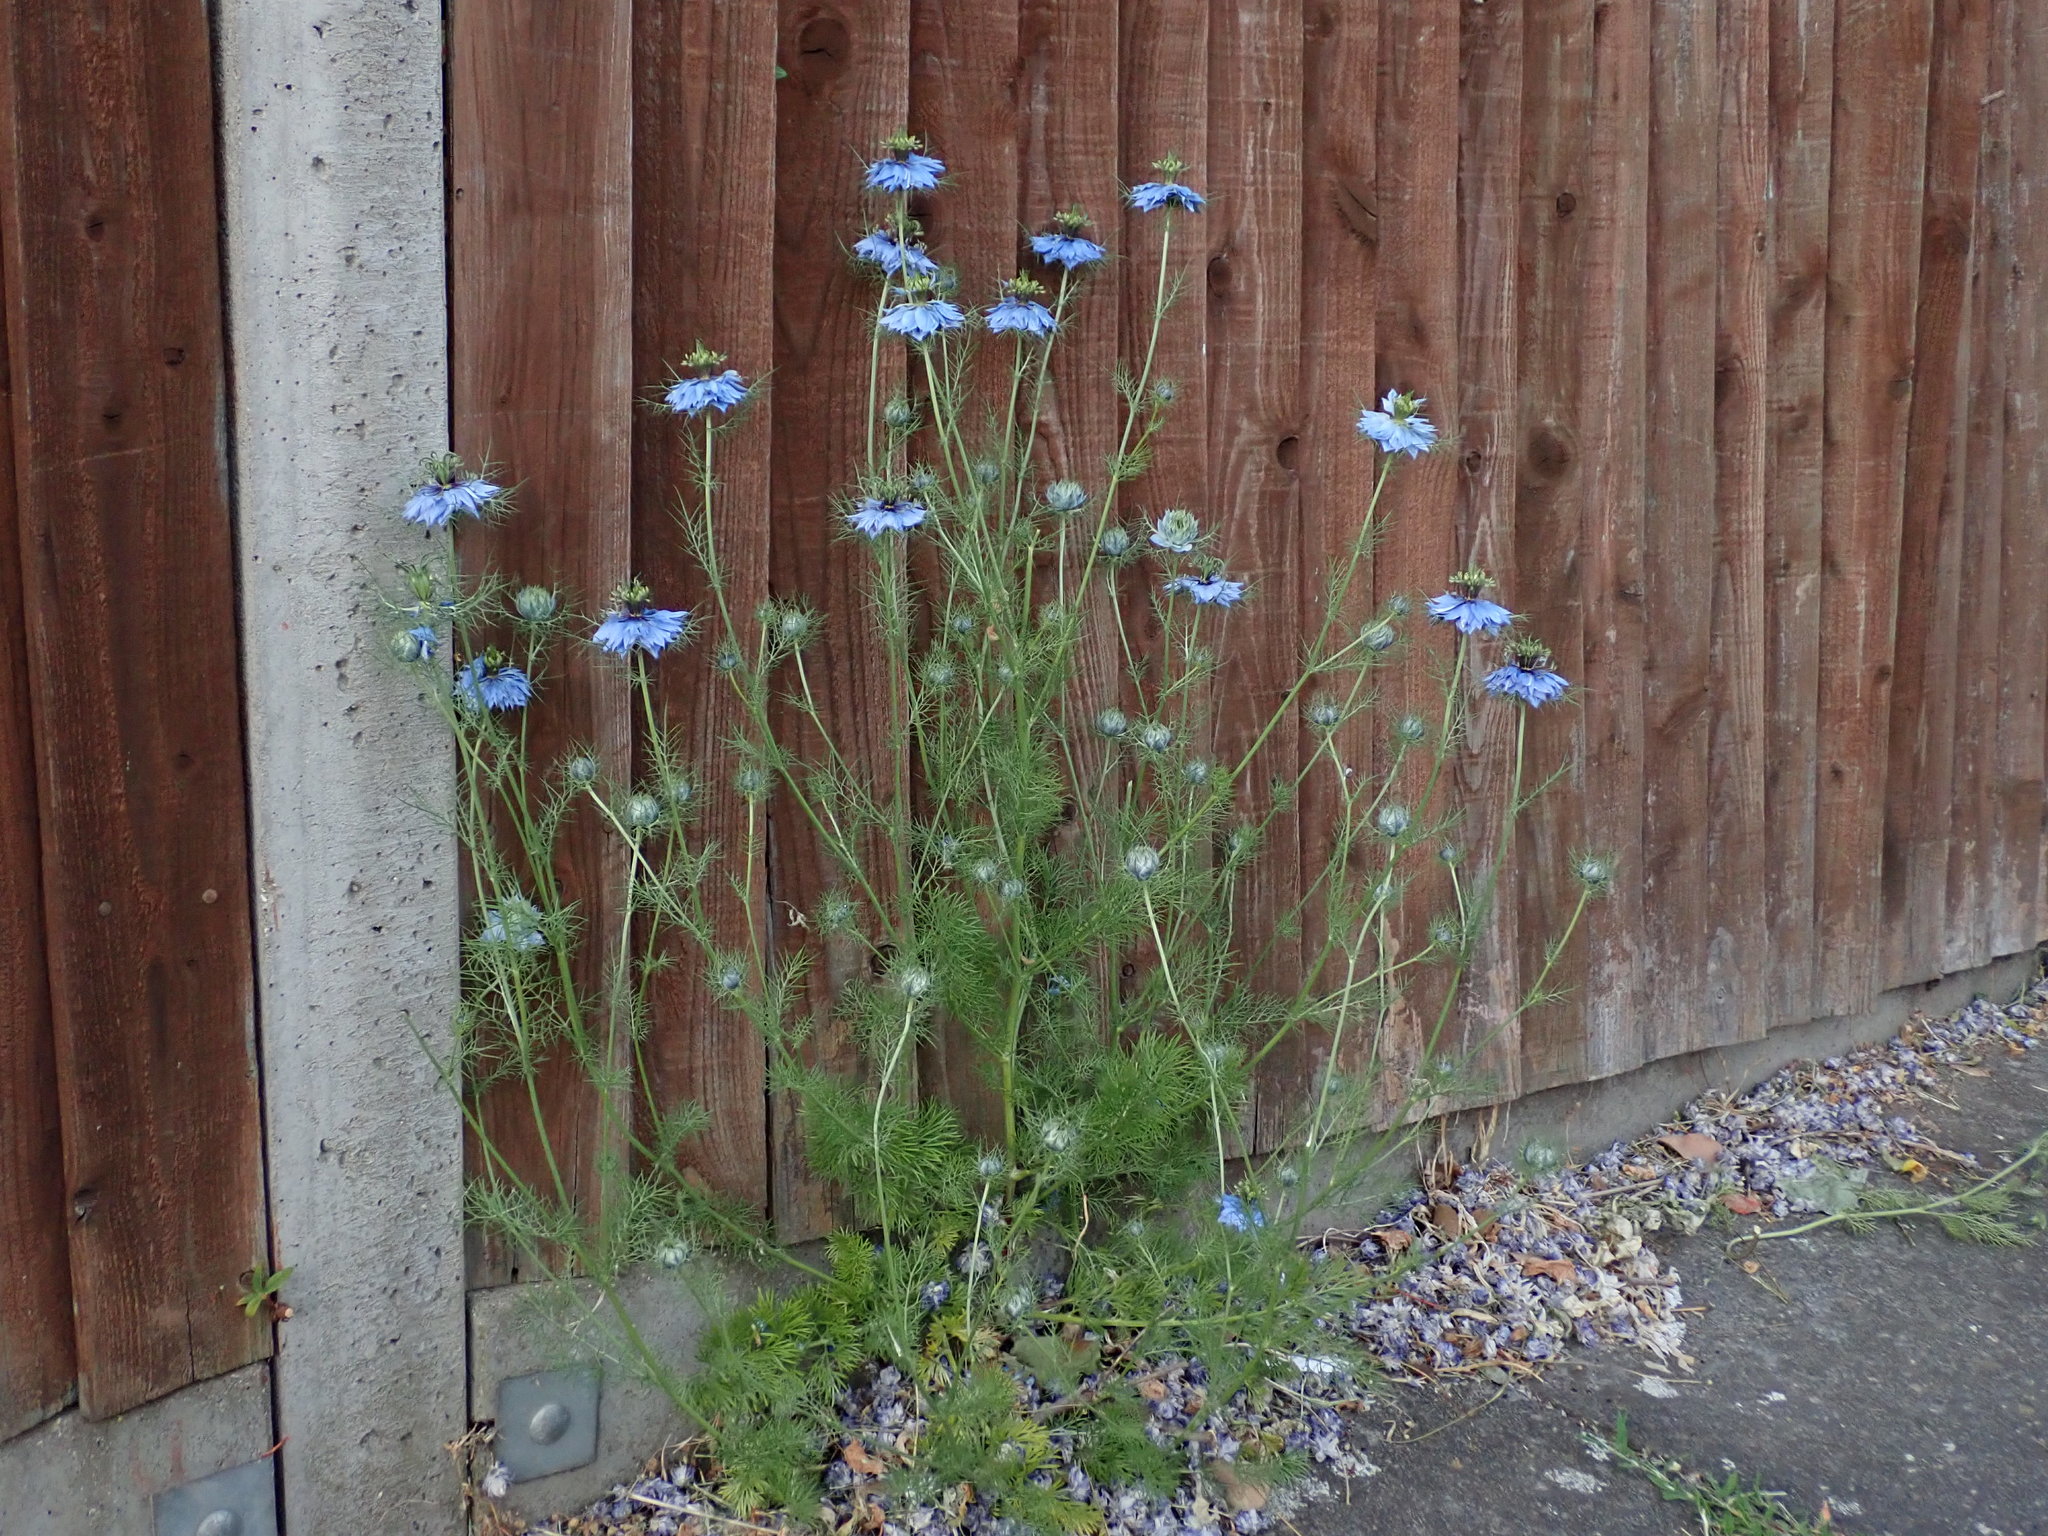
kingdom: Plantae
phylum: Tracheophyta
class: Magnoliopsida
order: Ranunculales
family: Ranunculaceae
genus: Nigella
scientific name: Nigella damascena
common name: Love-in-a-mist
